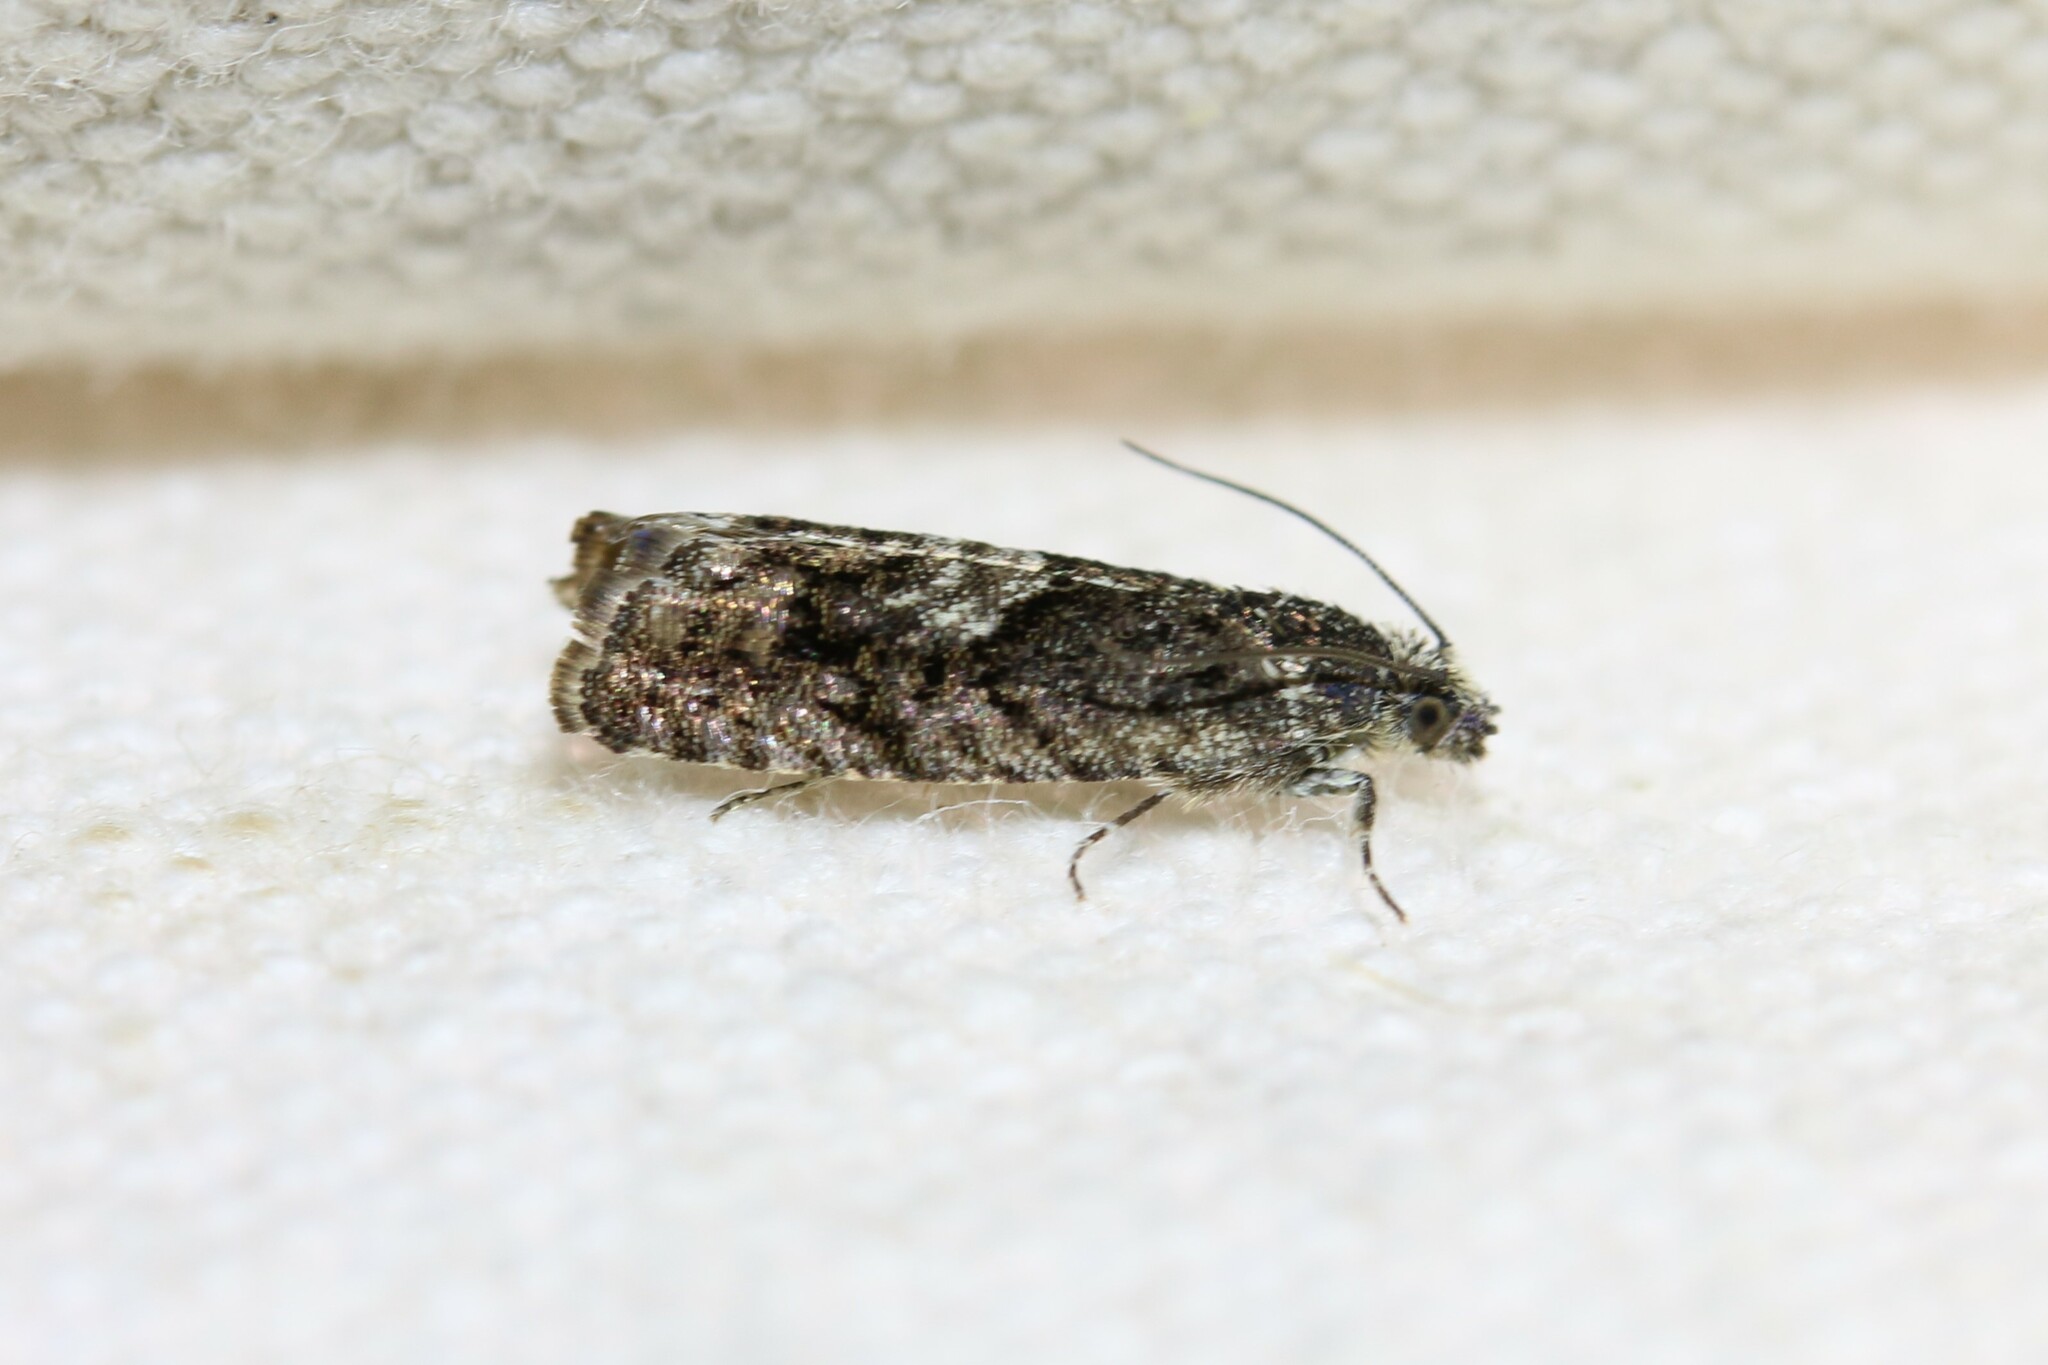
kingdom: Animalia
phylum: Arthropoda
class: Insecta
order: Lepidoptera
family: Tortricidae
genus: Pammene
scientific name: Pammene giganteana
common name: Early oak piercer
